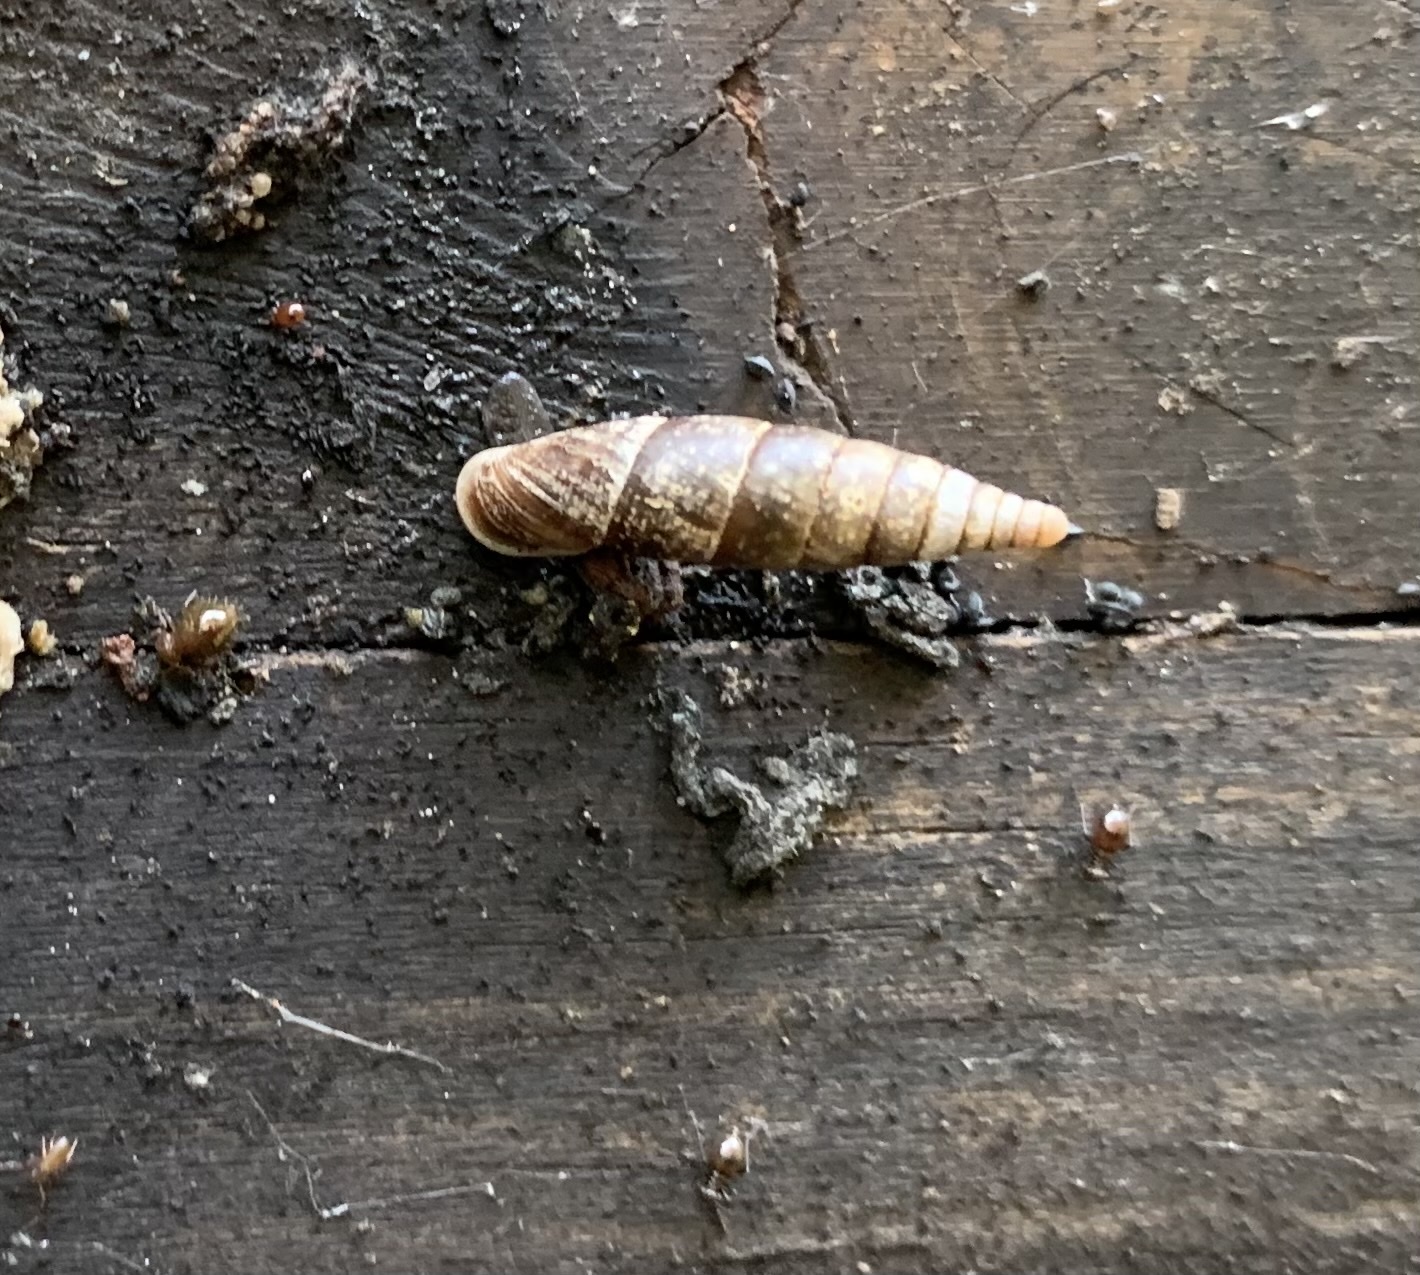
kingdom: Animalia
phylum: Mollusca
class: Gastropoda
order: Stylommatophora
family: Clausiliidae
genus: Cochlodina
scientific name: Cochlodina laminata
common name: Plaited door snail
